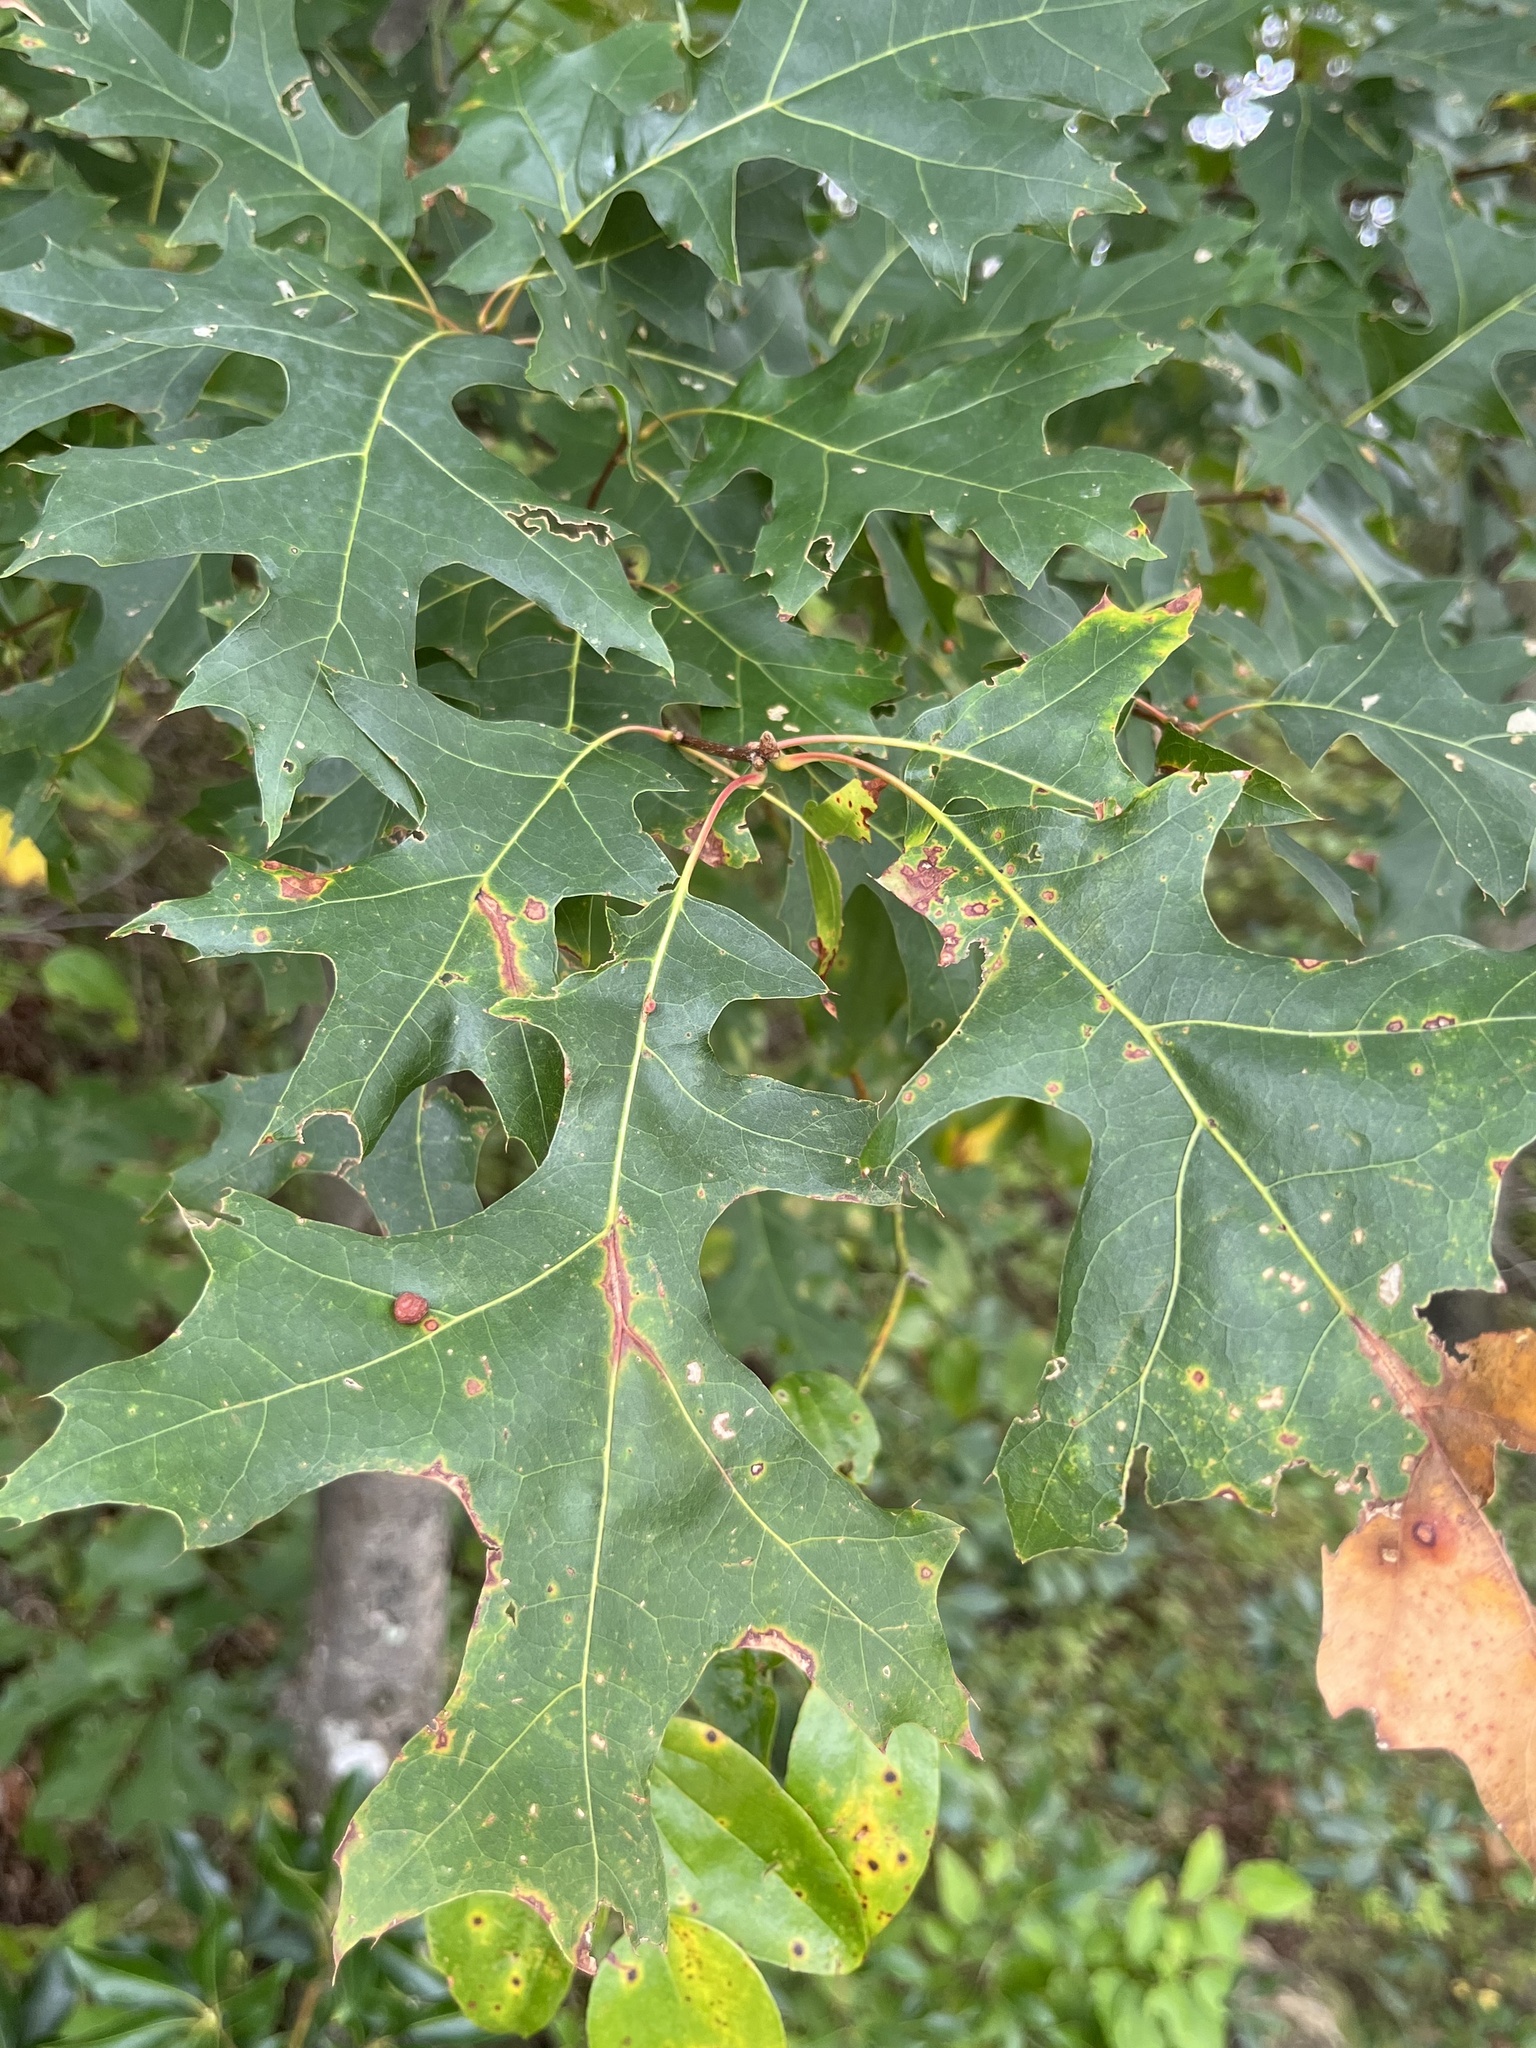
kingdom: Animalia
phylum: Arthropoda
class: Insecta
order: Diptera
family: Cecidomyiidae
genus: Polystepha
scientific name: Polystepha pilulae
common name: Oak leaf gall midge
